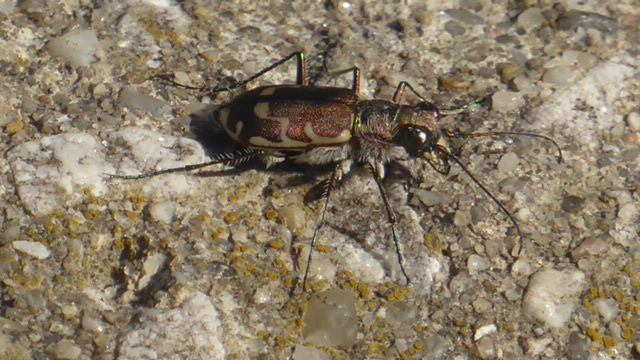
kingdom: Animalia
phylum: Arthropoda
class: Insecta
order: Coleoptera
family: Carabidae
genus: Cicindela
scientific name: Cicindela repanda
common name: Bronzed tiger beetle
